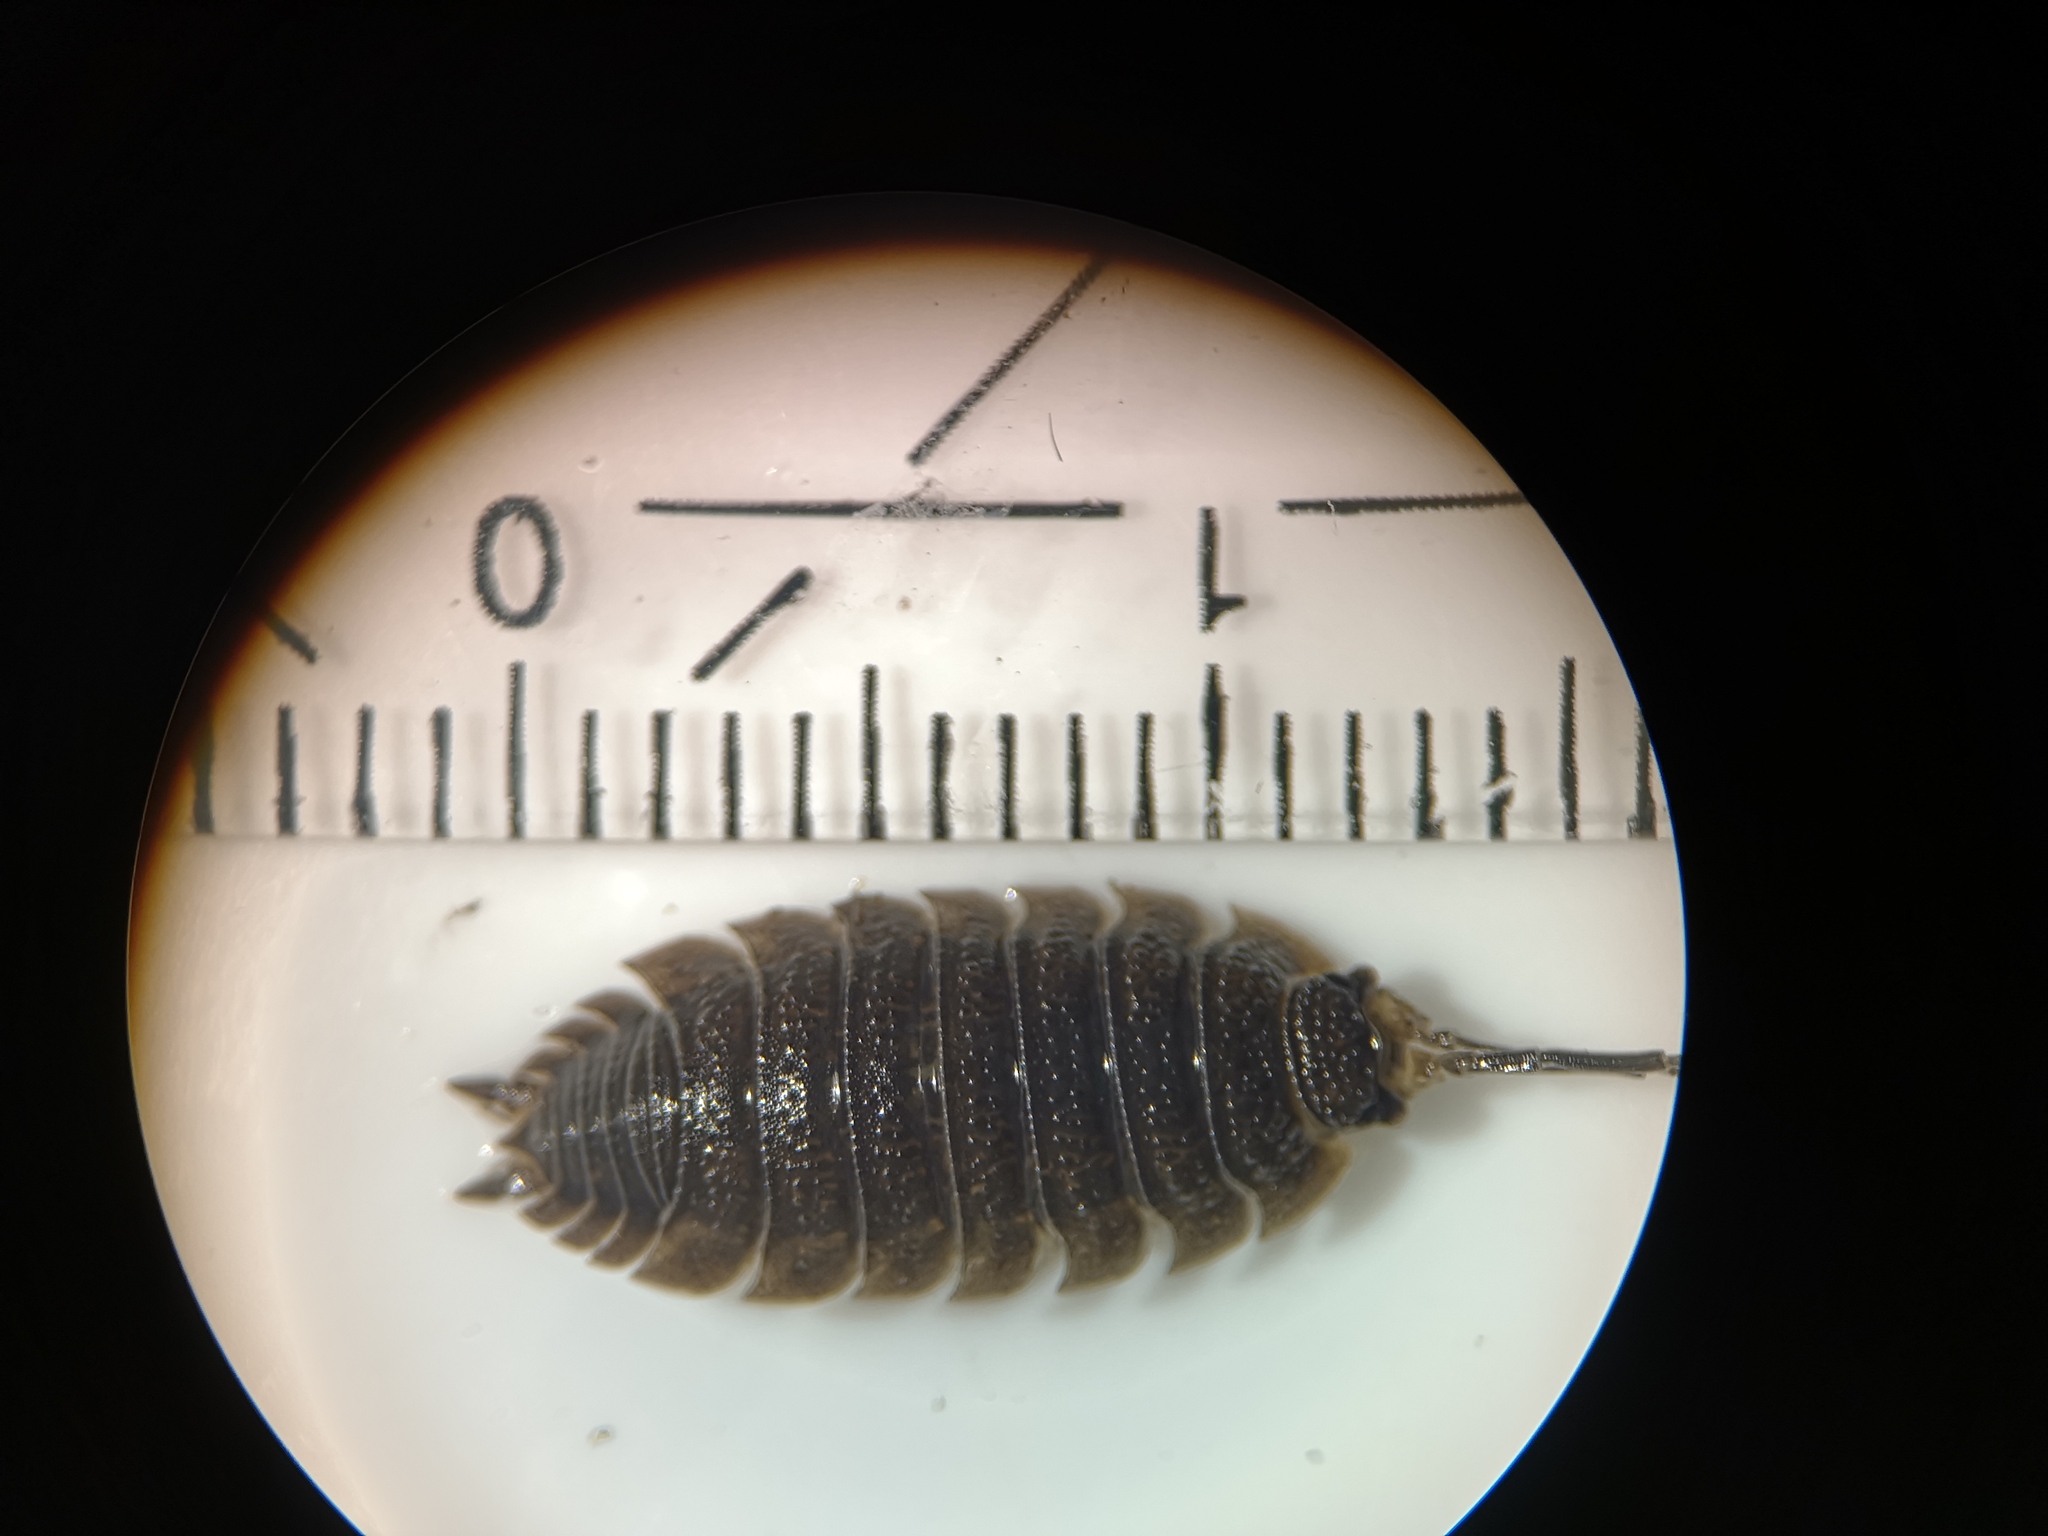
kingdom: Animalia
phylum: Arthropoda
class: Malacostraca
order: Isopoda
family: Porcellionidae
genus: Porcellio
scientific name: Porcellio scaber
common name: Common rough woodlouse
